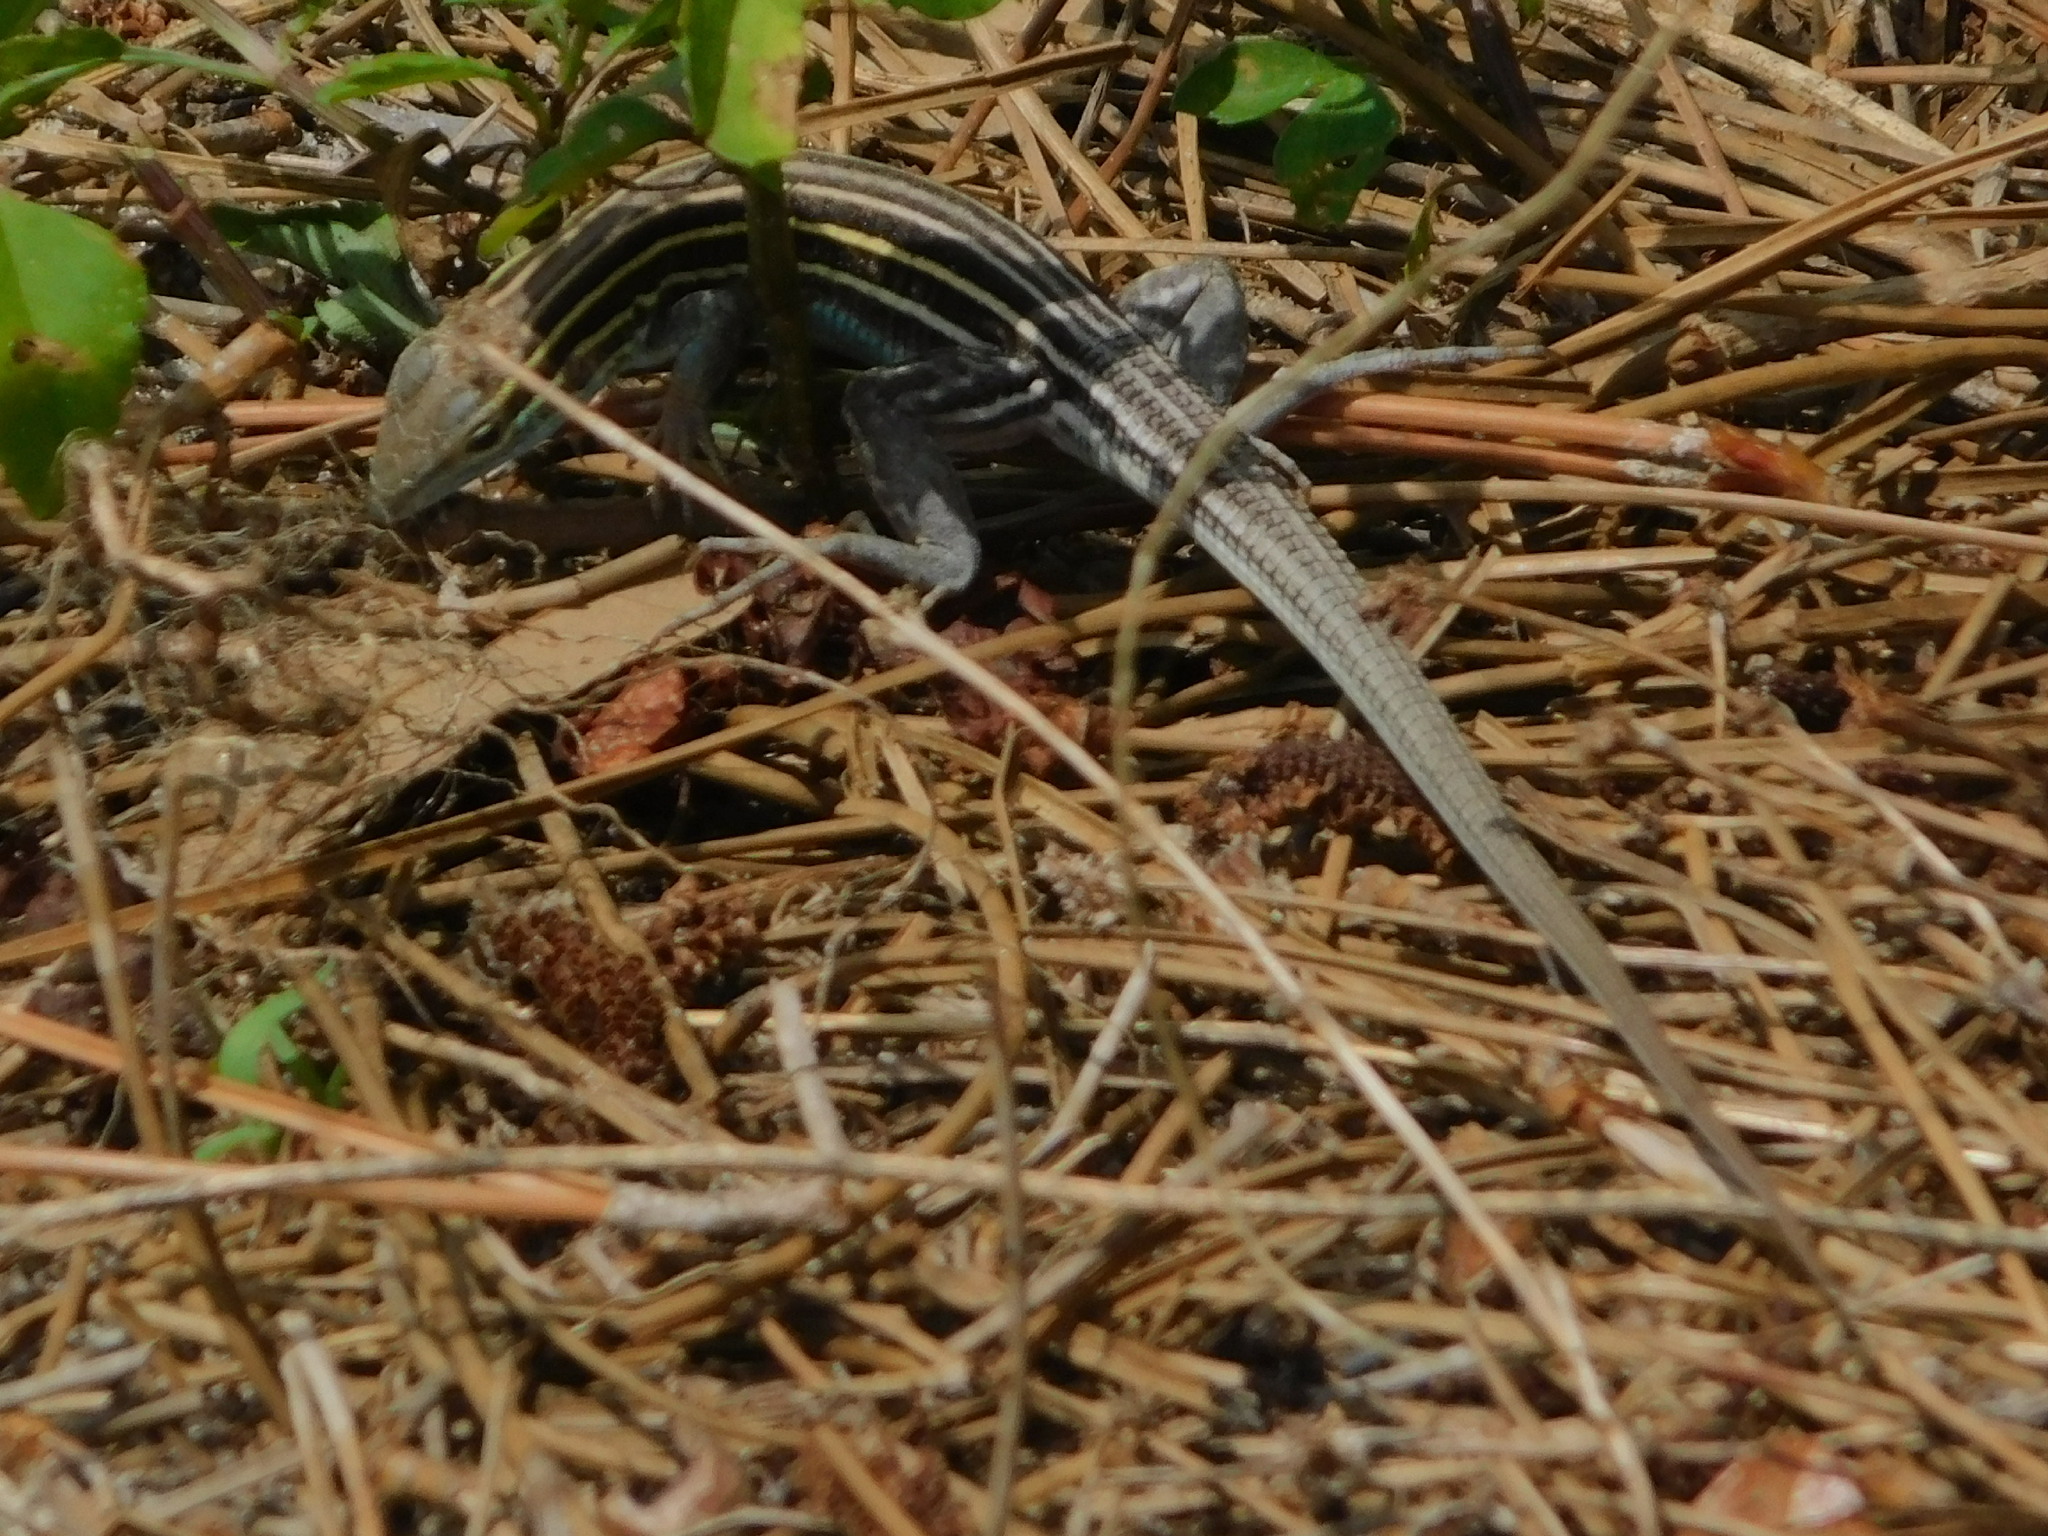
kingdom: Animalia
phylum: Chordata
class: Squamata
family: Teiidae
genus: Aspidoscelis
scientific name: Aspidoscelis sexlineatus
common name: Six-lined racerunner
